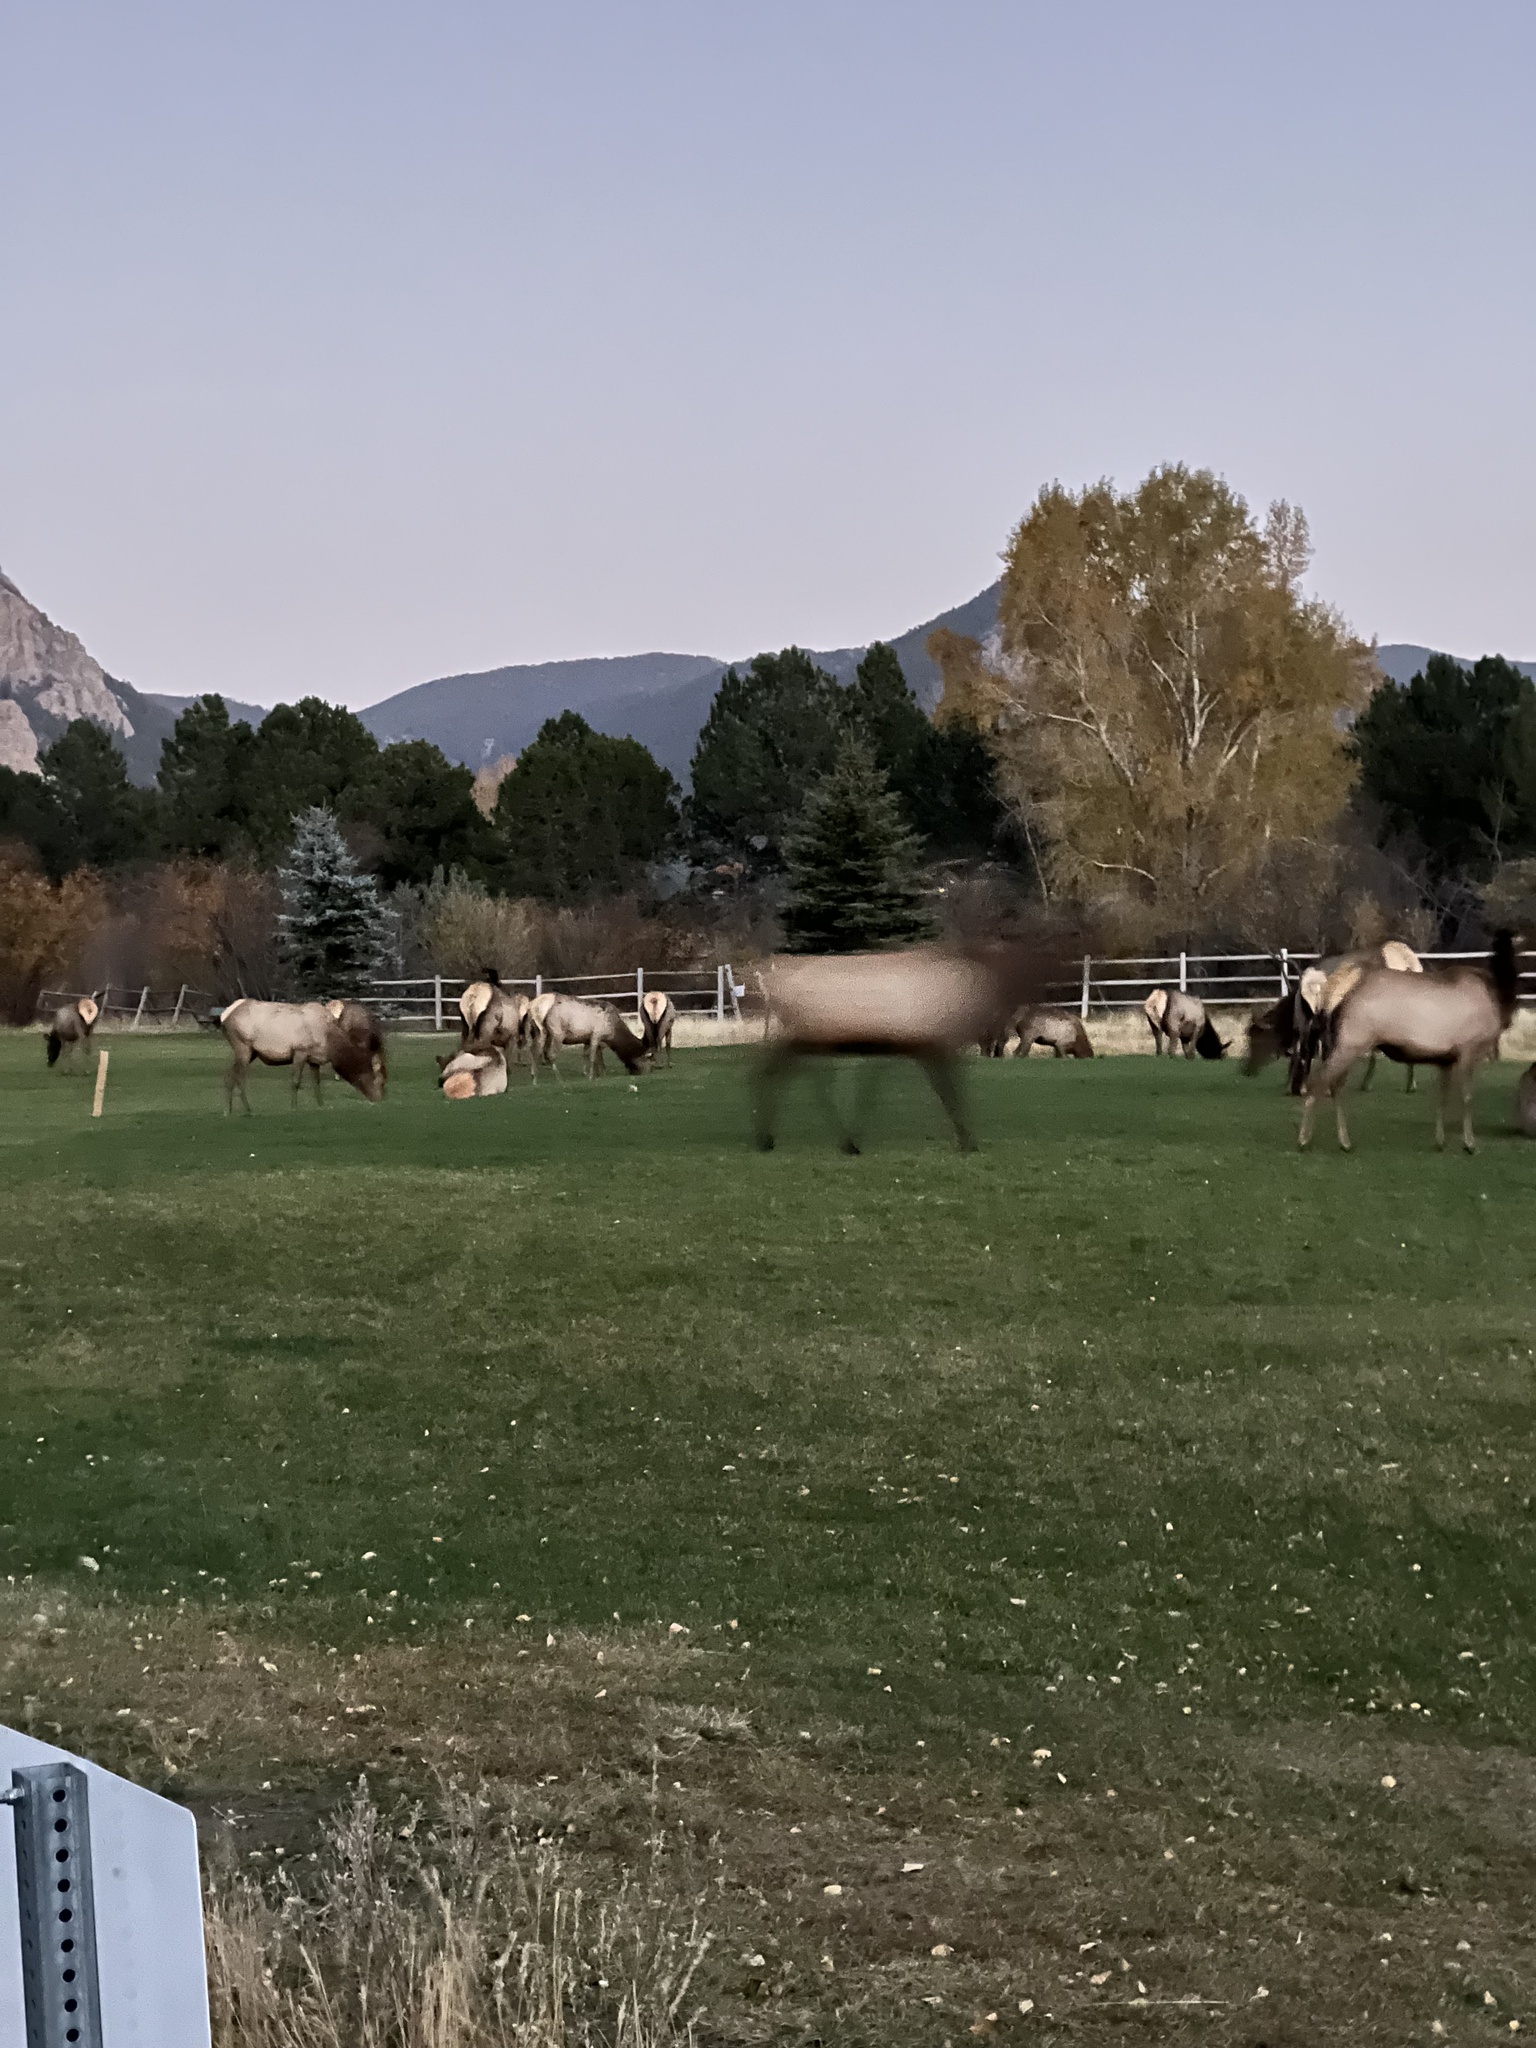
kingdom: Animalia
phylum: Chordata
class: Mammalia
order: Artiodactyla
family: Cervidae
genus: Cervus
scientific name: Cervus elaphus
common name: Red deer
